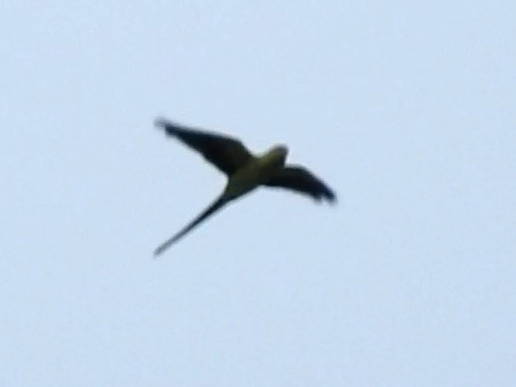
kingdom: Animalia
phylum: Chordata
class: Aves
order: Psittaciformes
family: Psittacidae
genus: Psittacula
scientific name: Psittacula krameri
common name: Rose-ringed parakeet
